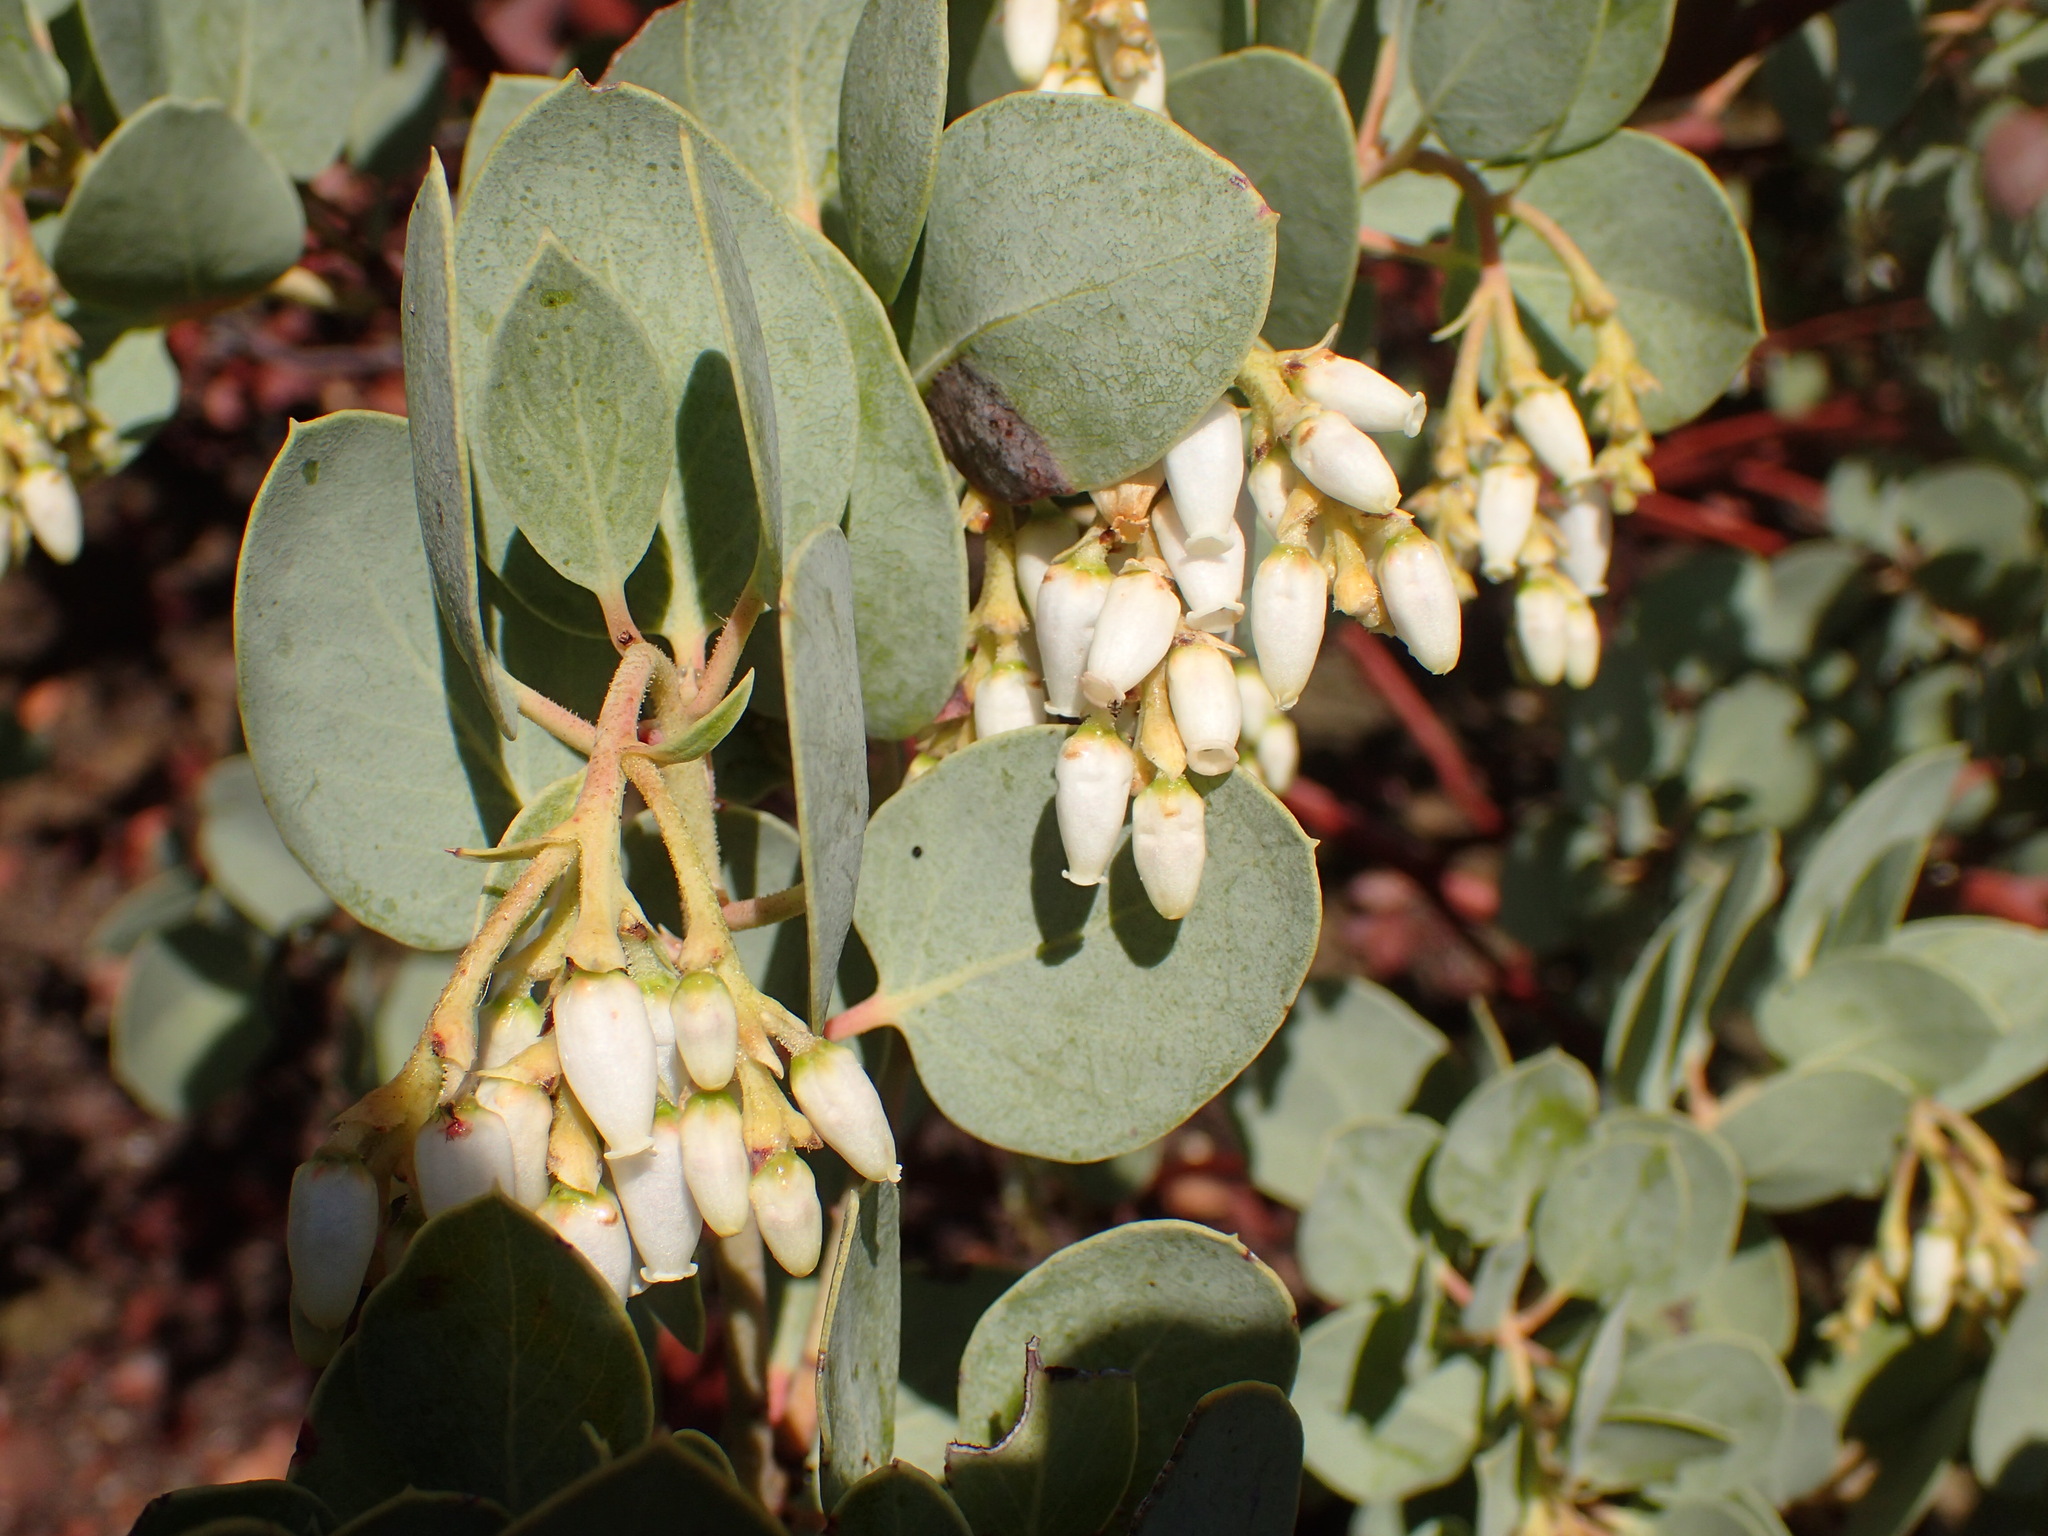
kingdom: Plantae
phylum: Tracheophyta
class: Magnoliopsida
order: Ericales
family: Ericaceae
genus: Arctostaphylos
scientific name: Arctostaphylos glauca
